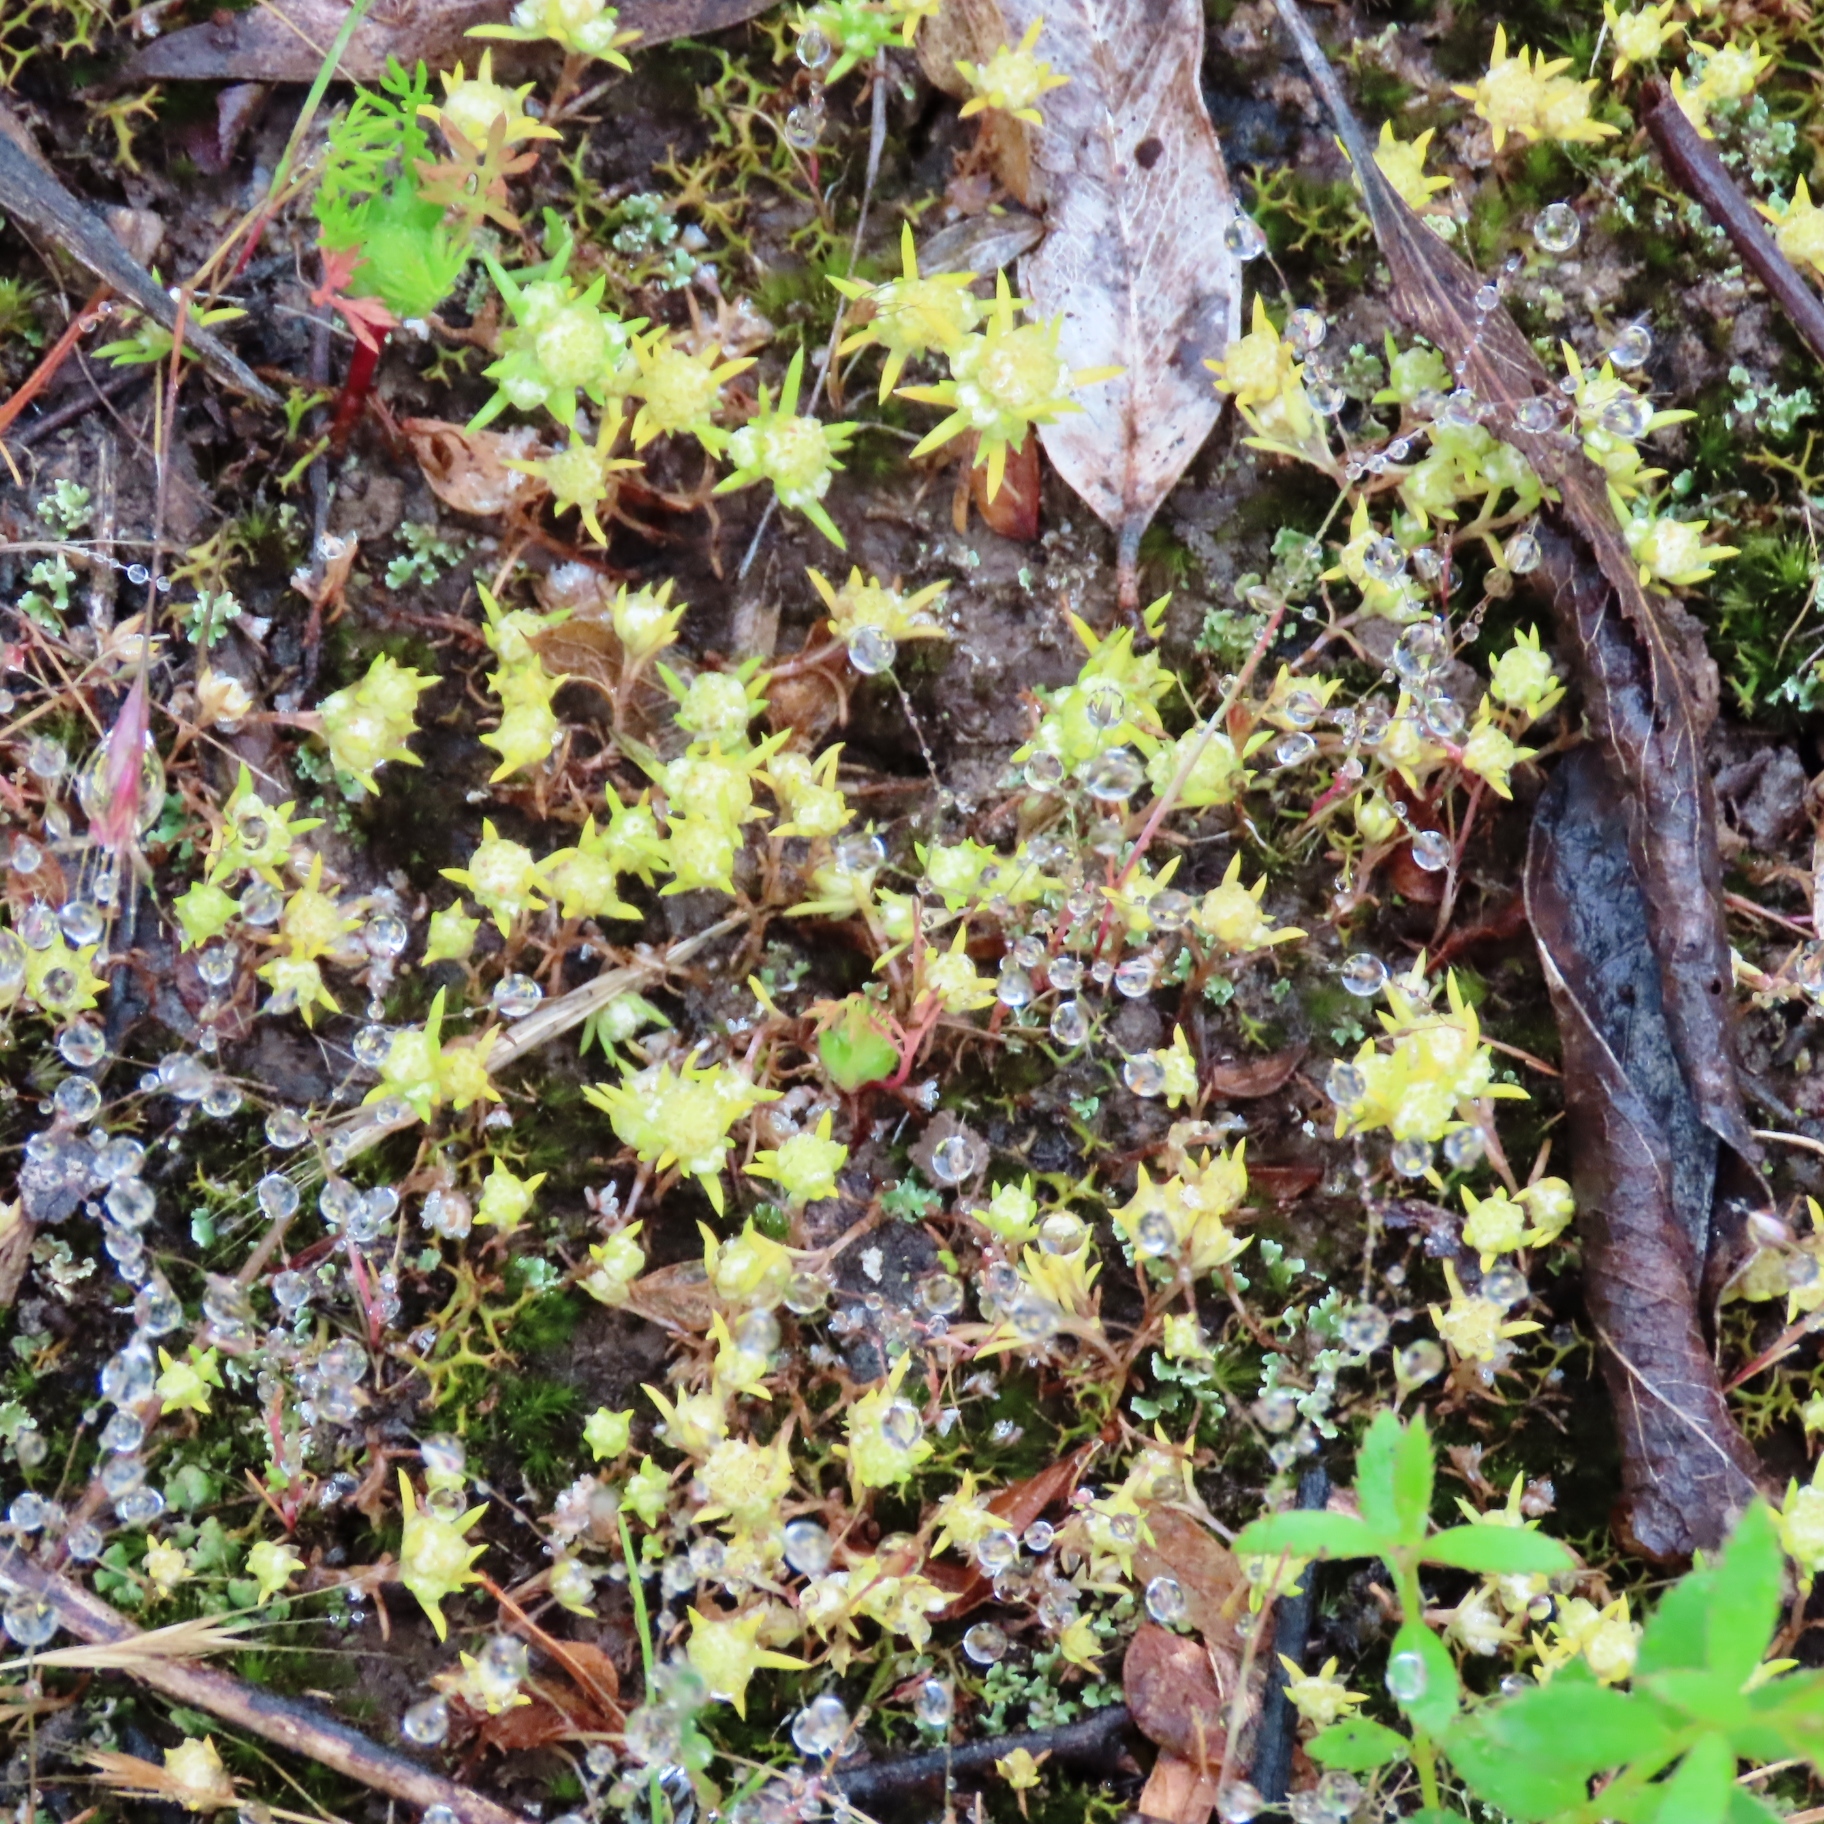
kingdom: Plantae
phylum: Tracheophyta
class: Magnoliopsida
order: Asterales
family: Asteraceae
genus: Siloxerus
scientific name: Siloxerus multiflorus
